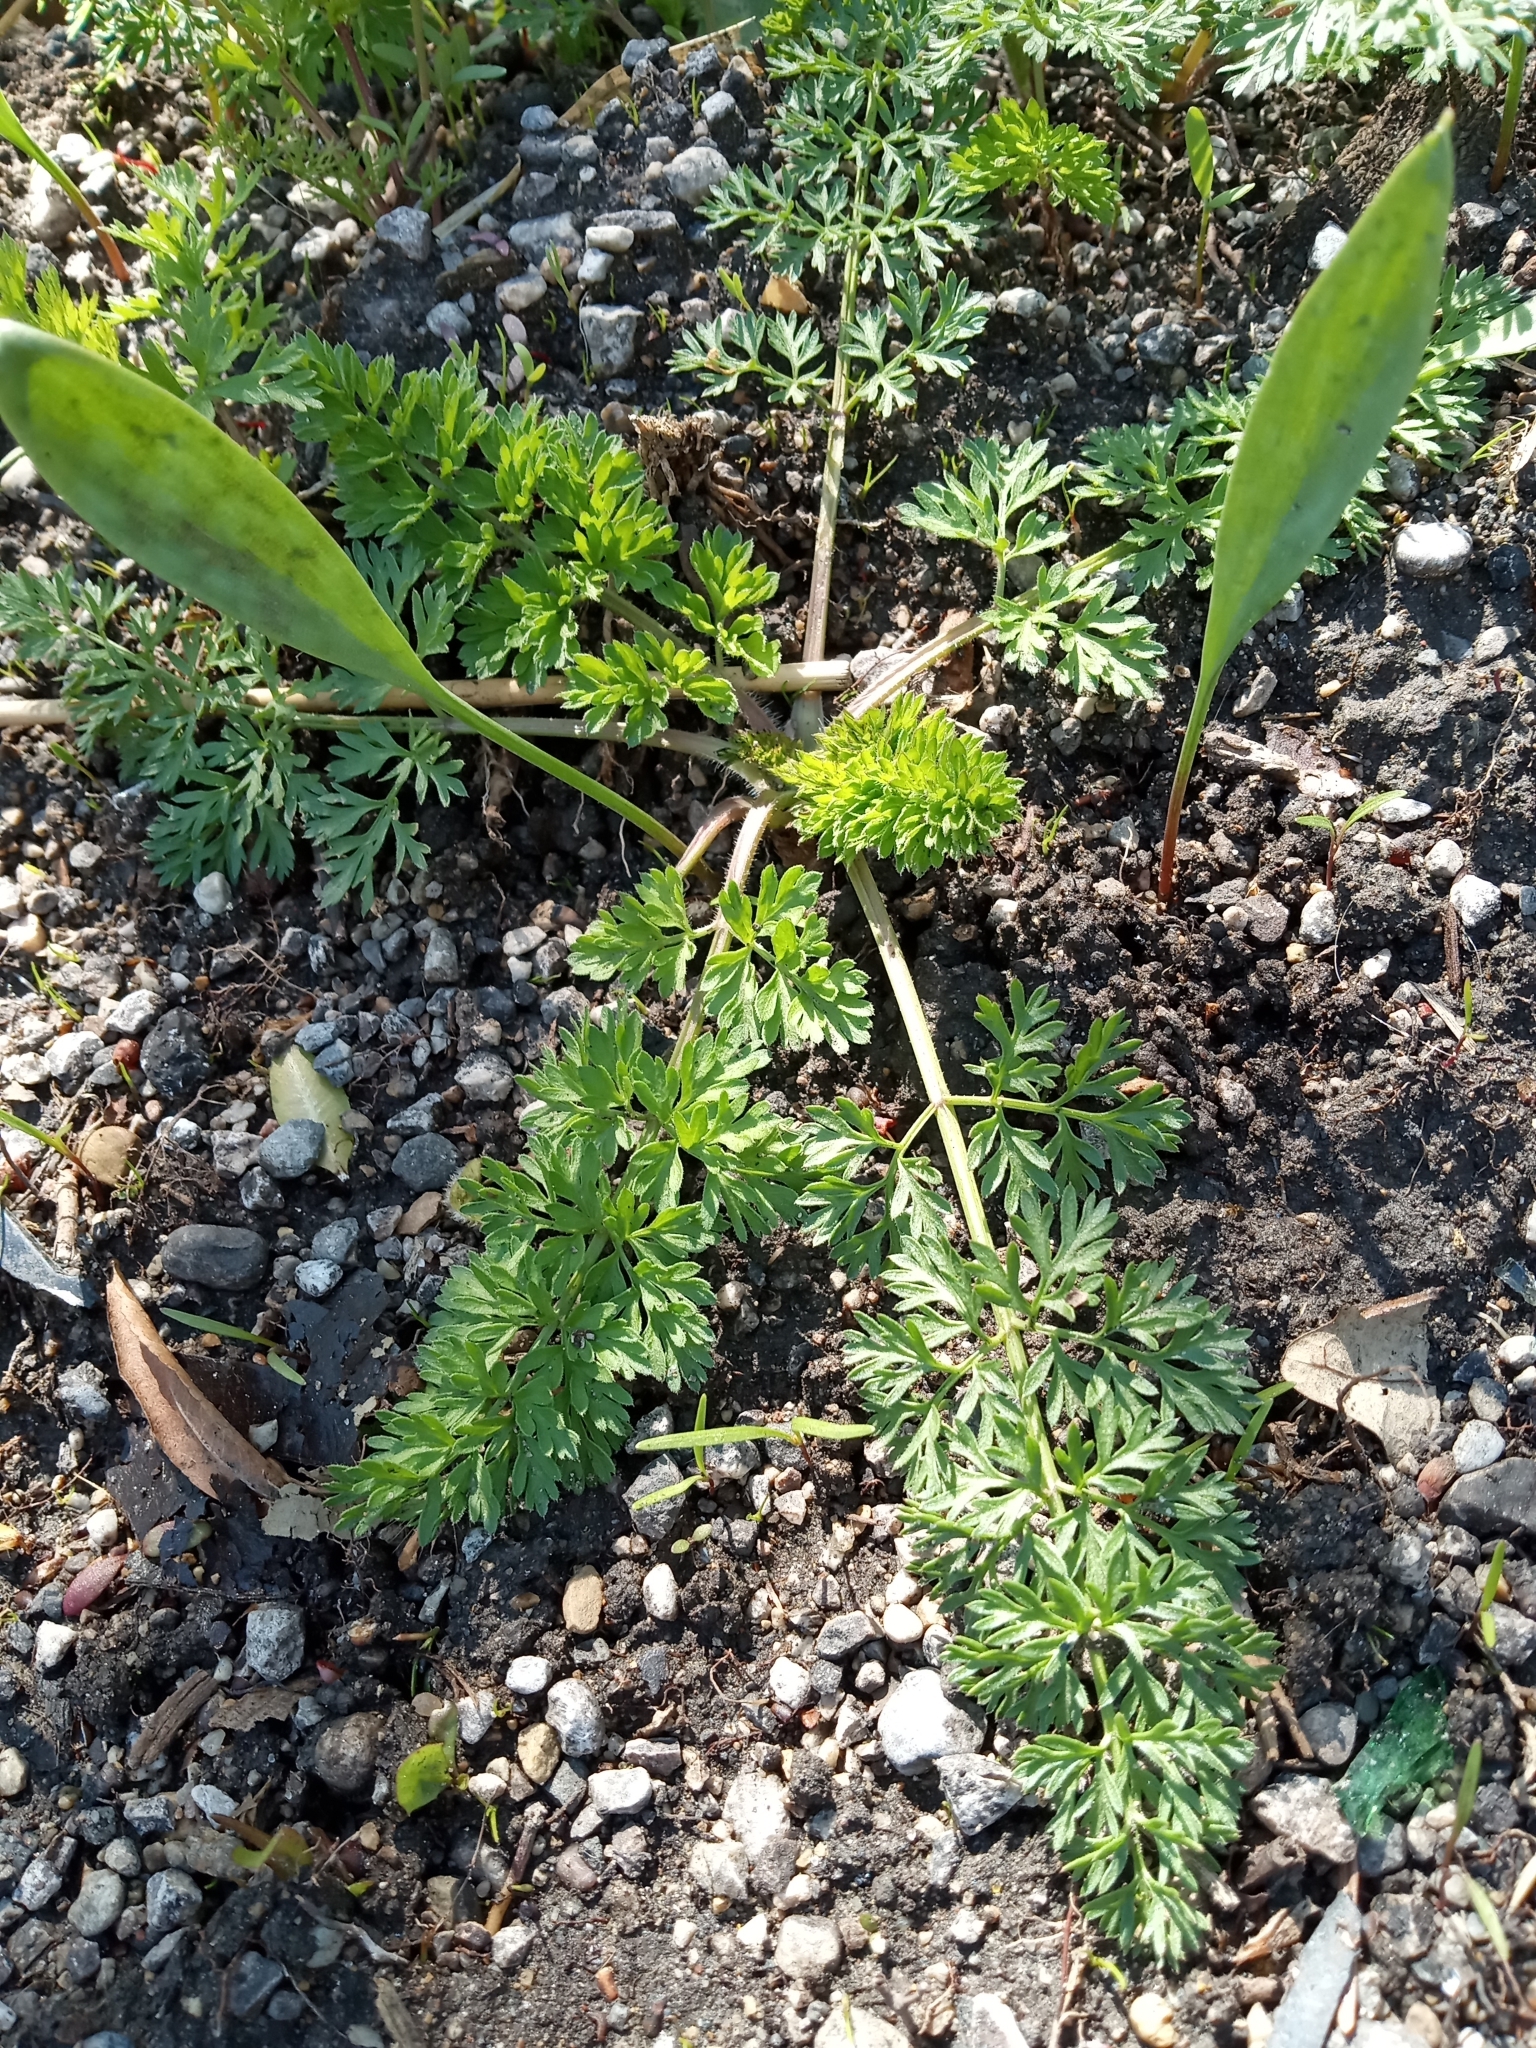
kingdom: Plantae
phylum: Tracheophyta
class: Magnoliopsida
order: Apiales
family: Apiaceae
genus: Daucus
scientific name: Daucus carota
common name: Wild carrot
